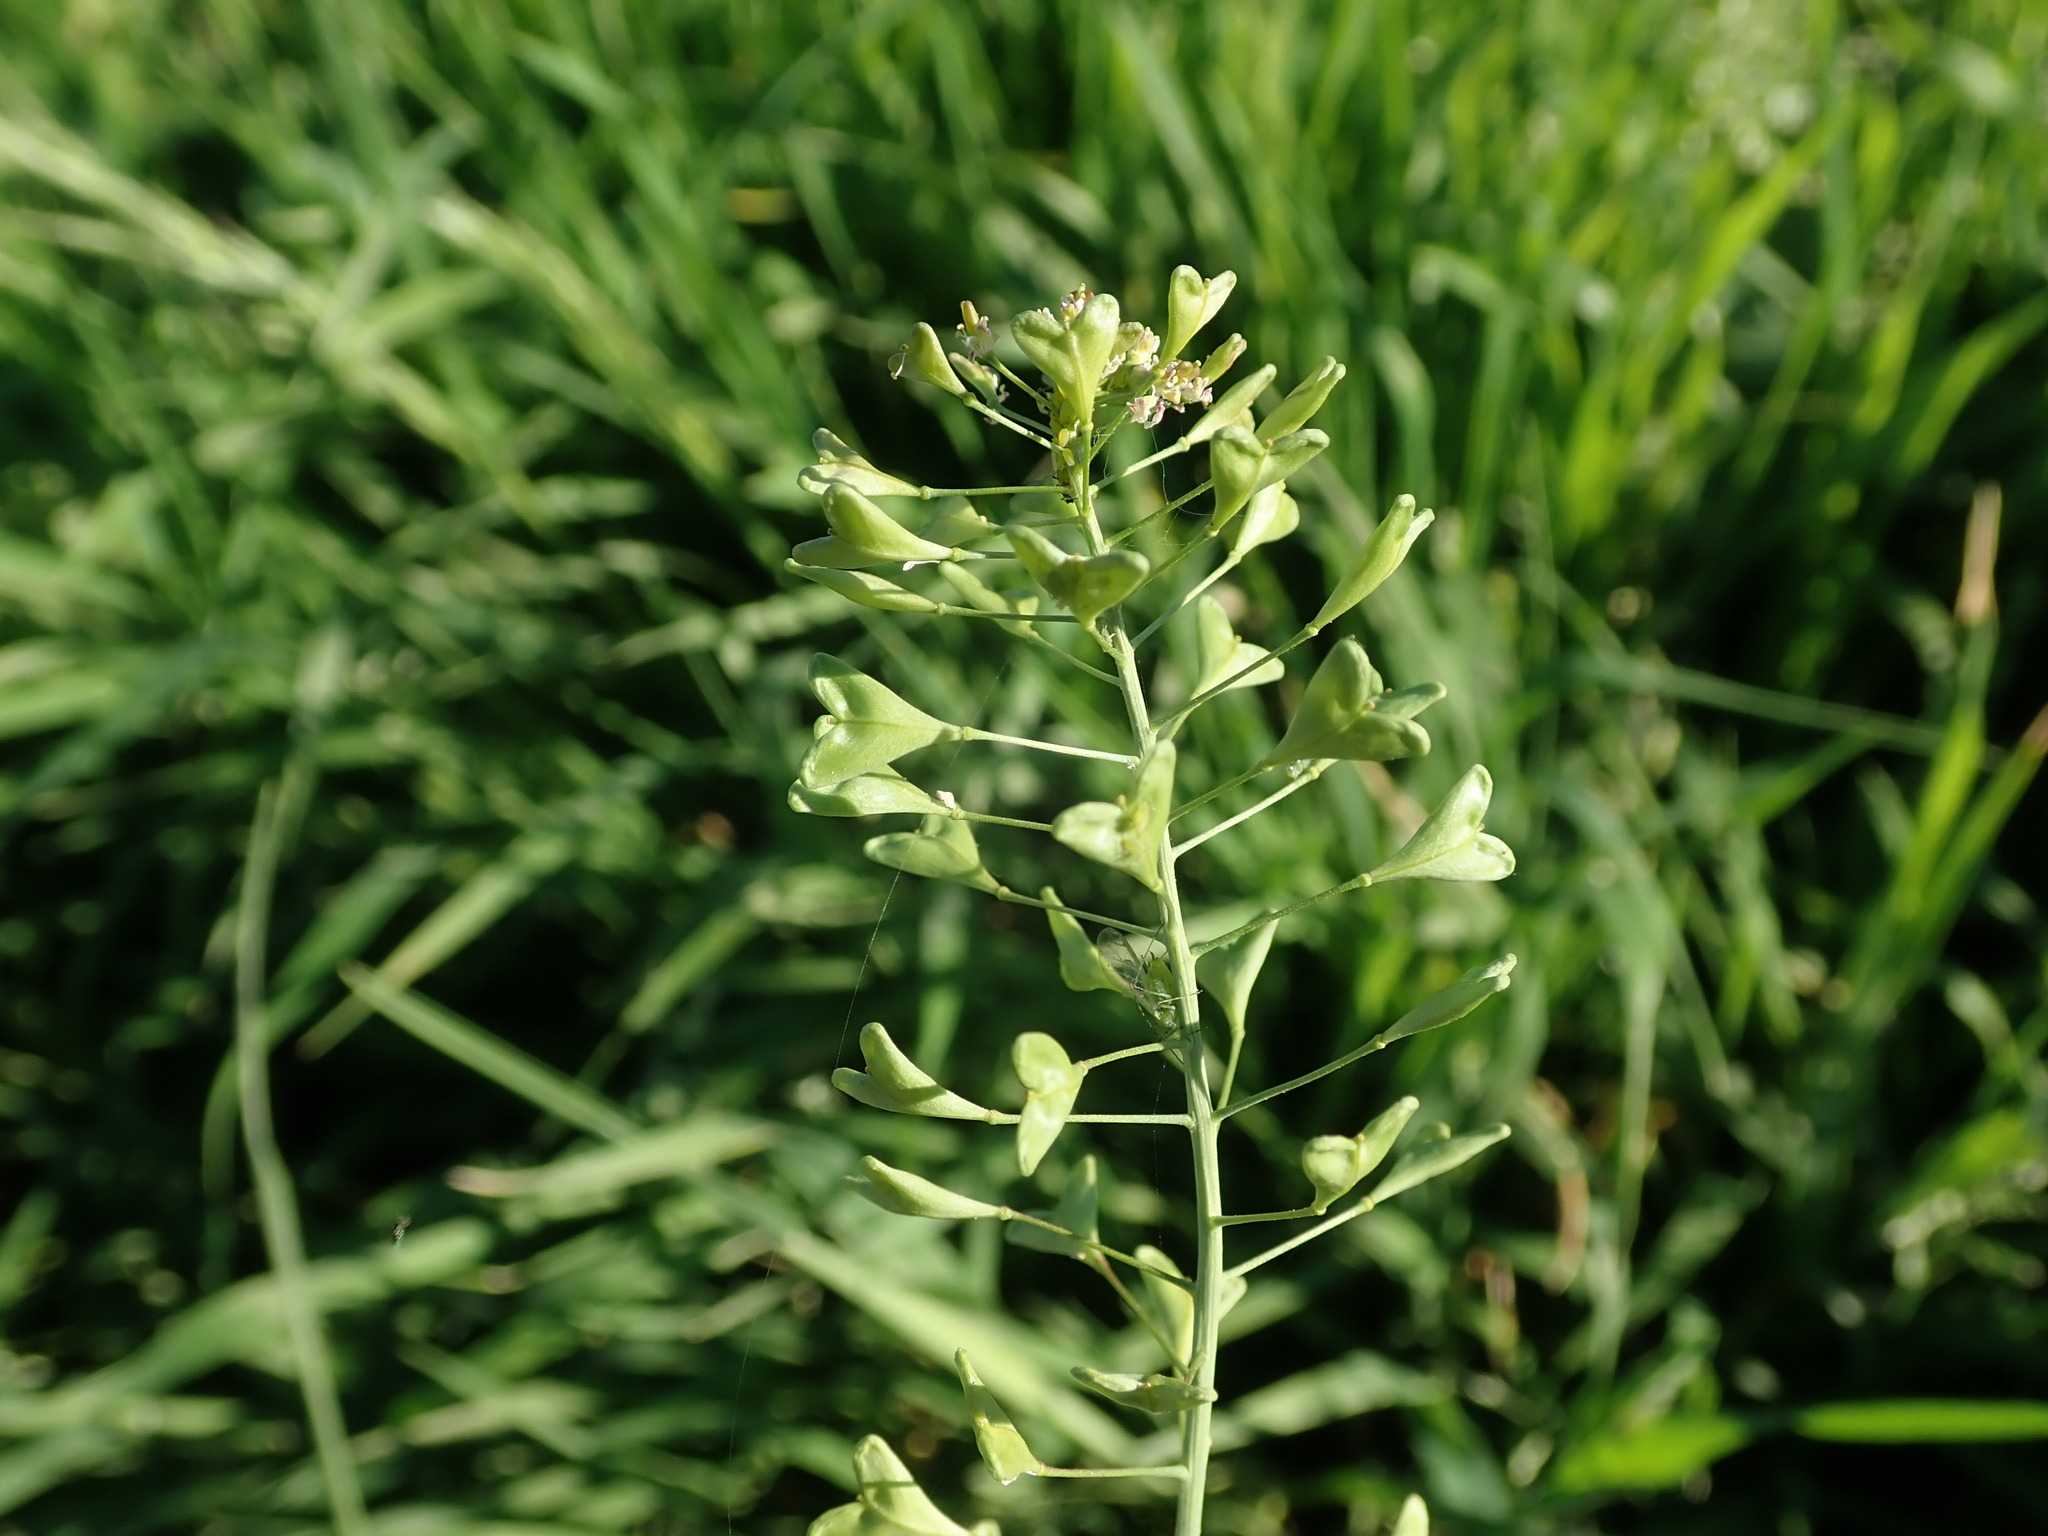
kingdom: Plantae
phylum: Tracheophyta
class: Magnoliopsida
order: Brassicales
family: Brassicaceae
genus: Capsella
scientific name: Capsella rubella
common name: Pink shepherd's-purse
